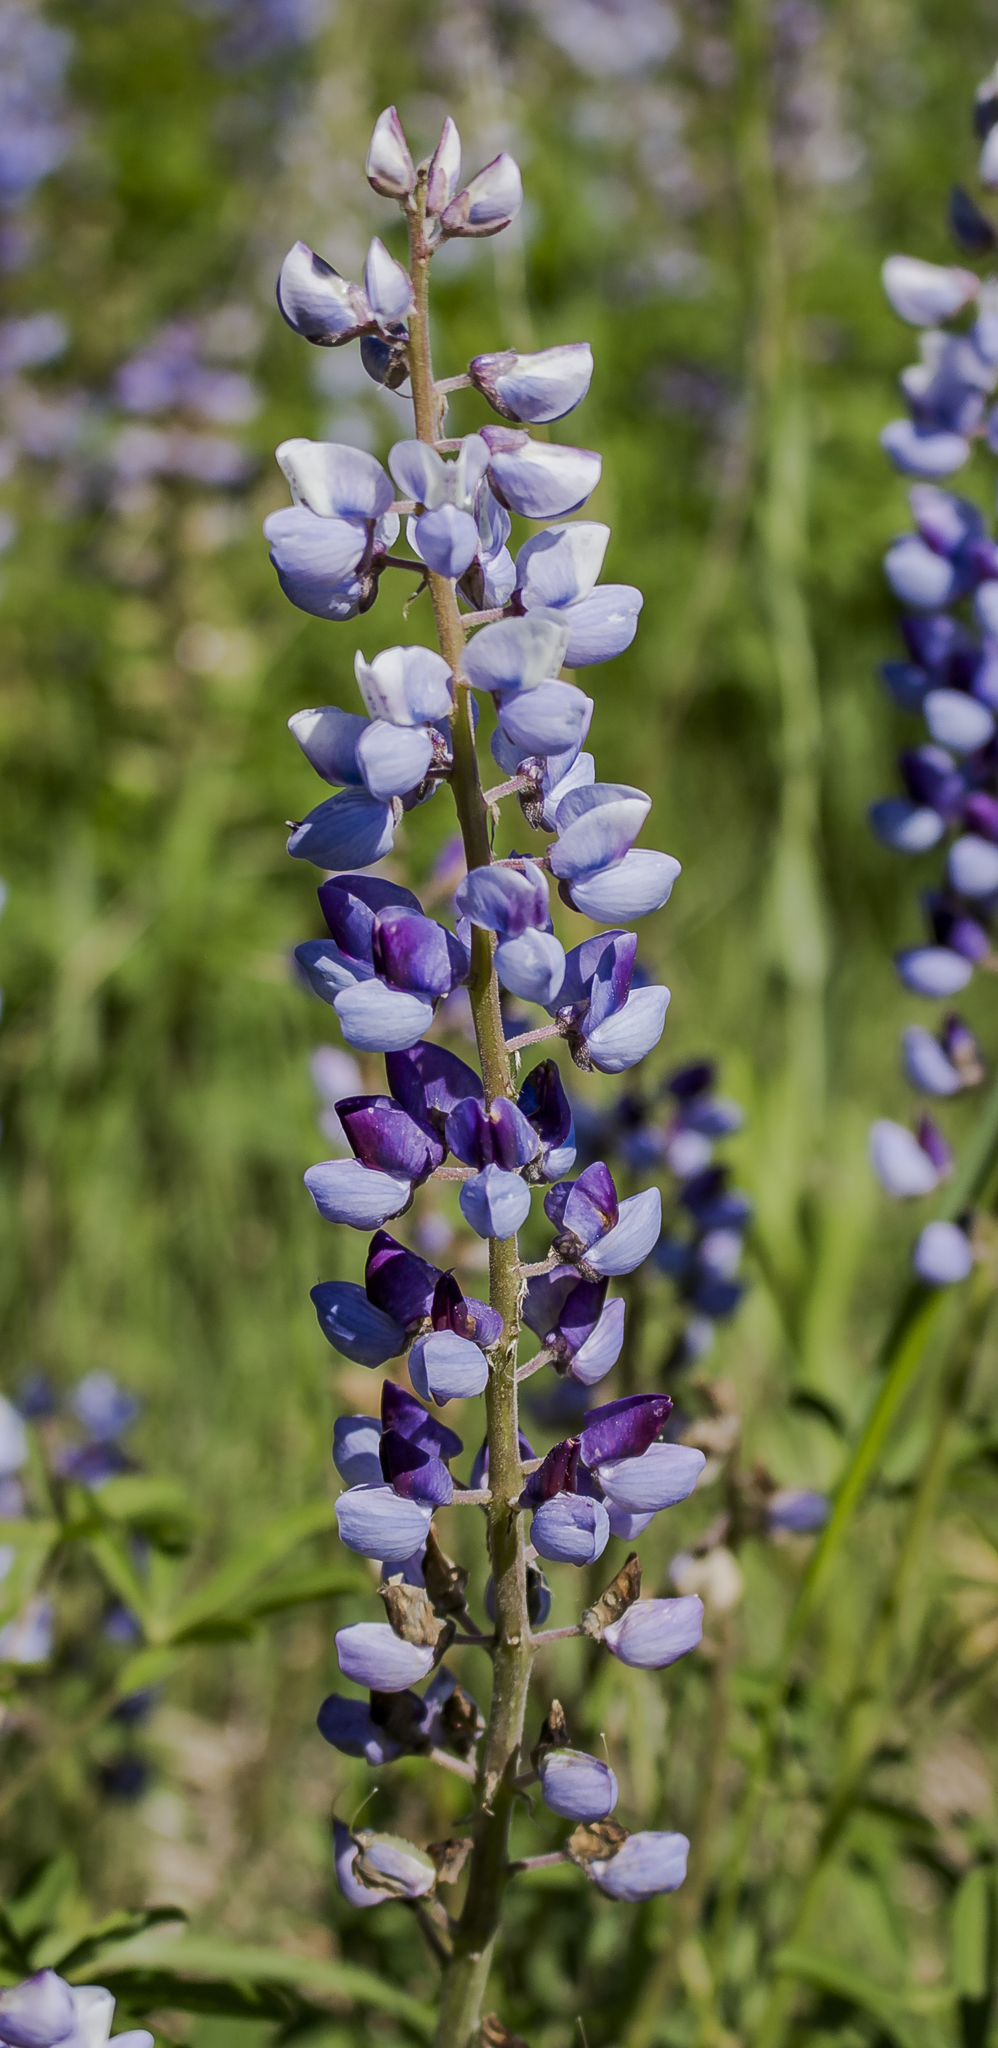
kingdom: Plantae
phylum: Tracheophyta
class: Magnoliopsida
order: Fabales
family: Fabaceae
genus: Lupinus
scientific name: Lupinus perennis
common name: Sundial lupine
